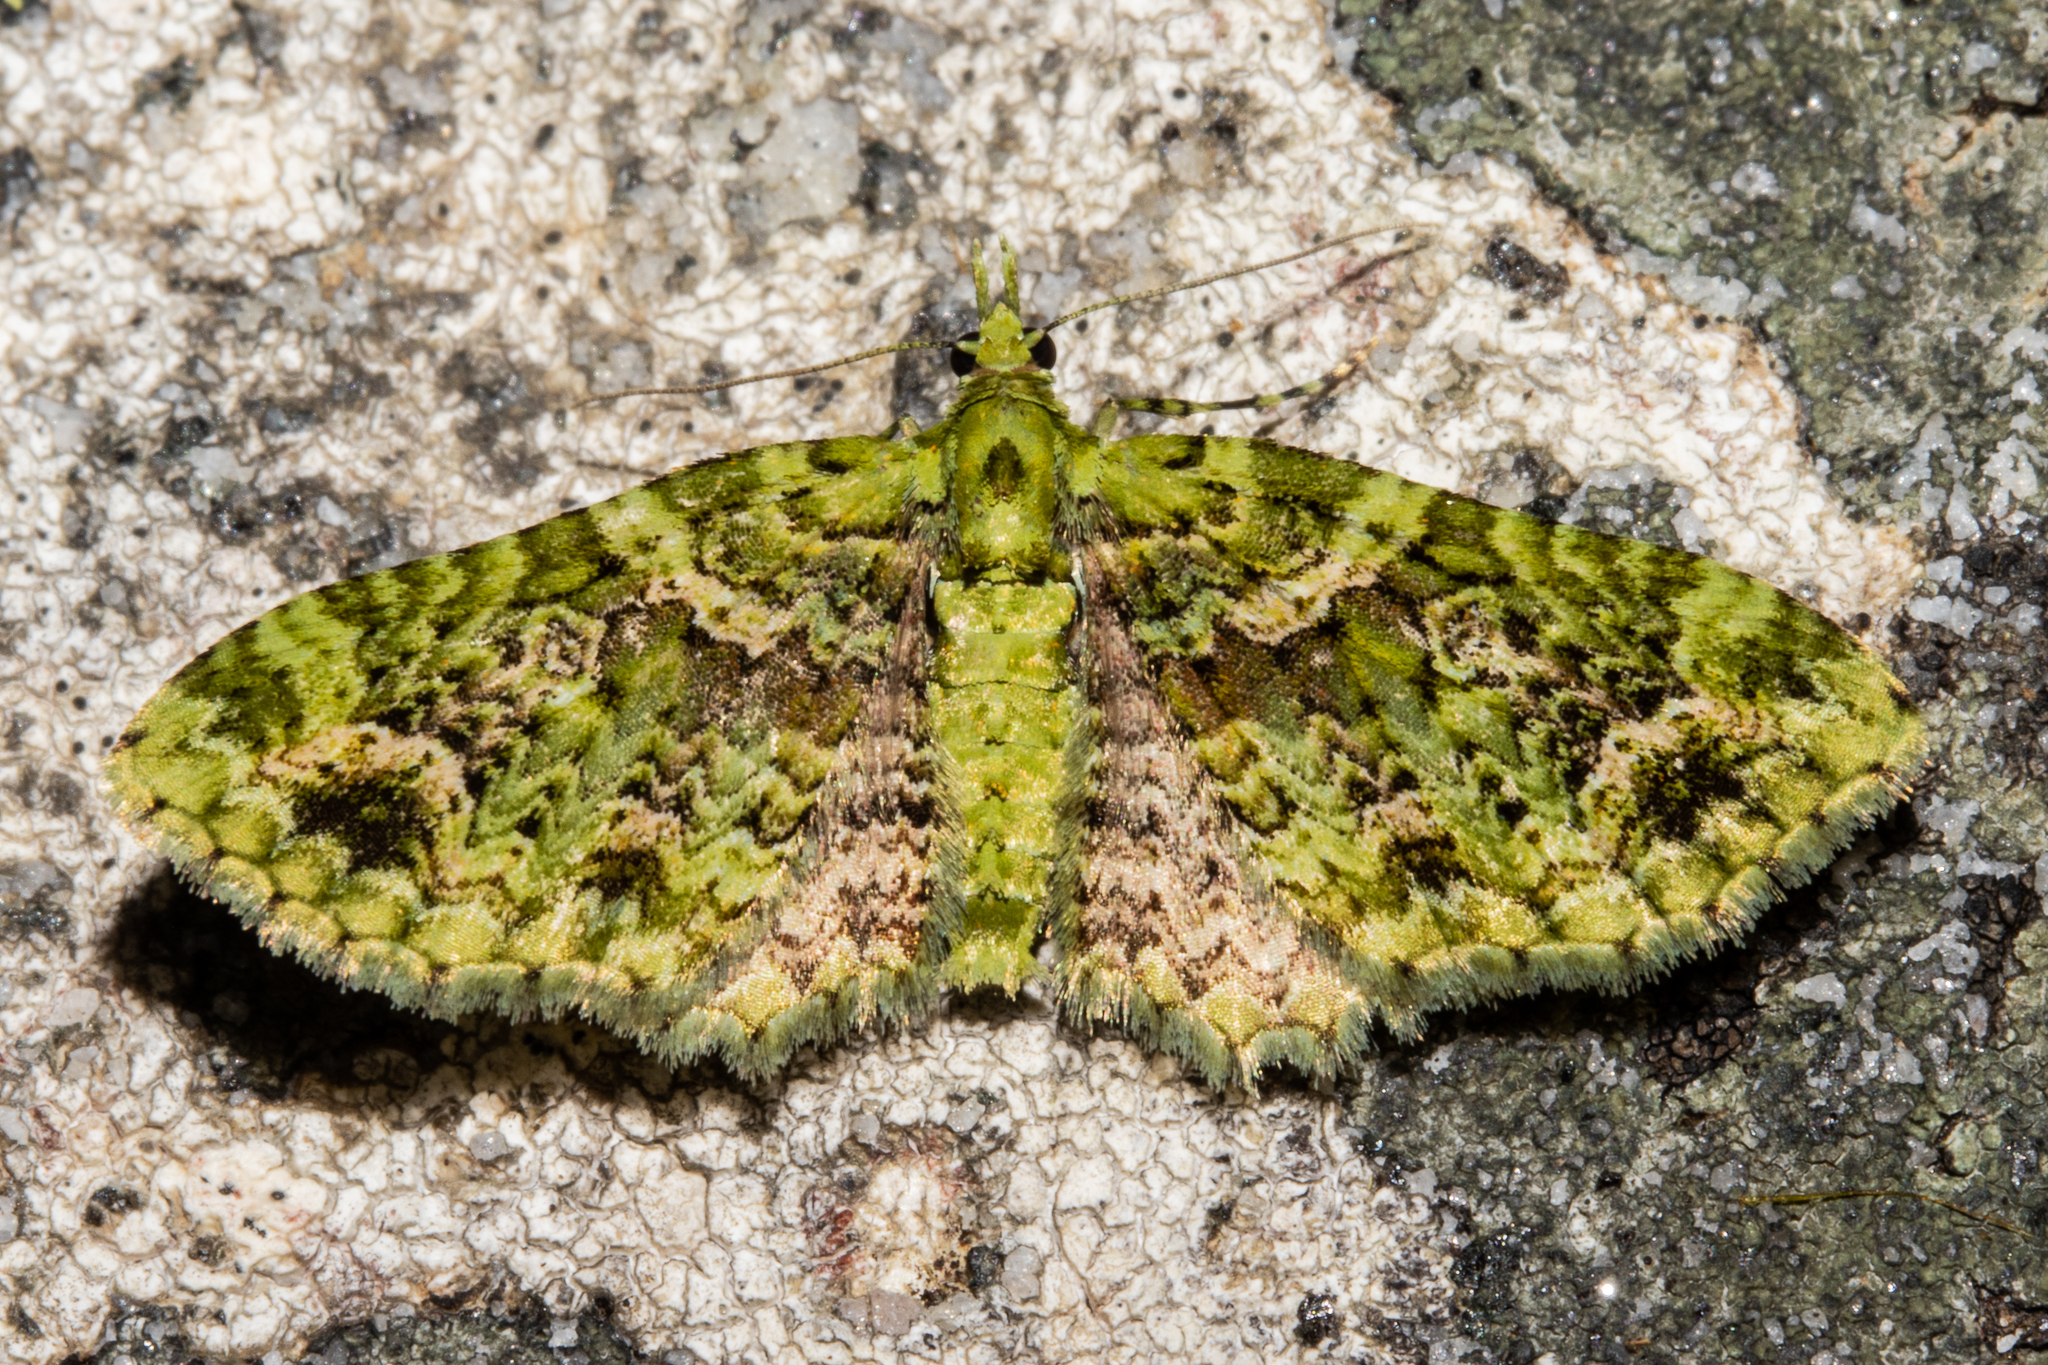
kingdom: Animalia
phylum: Arthropoda
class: Insecta
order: Lepidoptera
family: Geometridae
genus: Pasiphila
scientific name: Pasiphila muscosata
